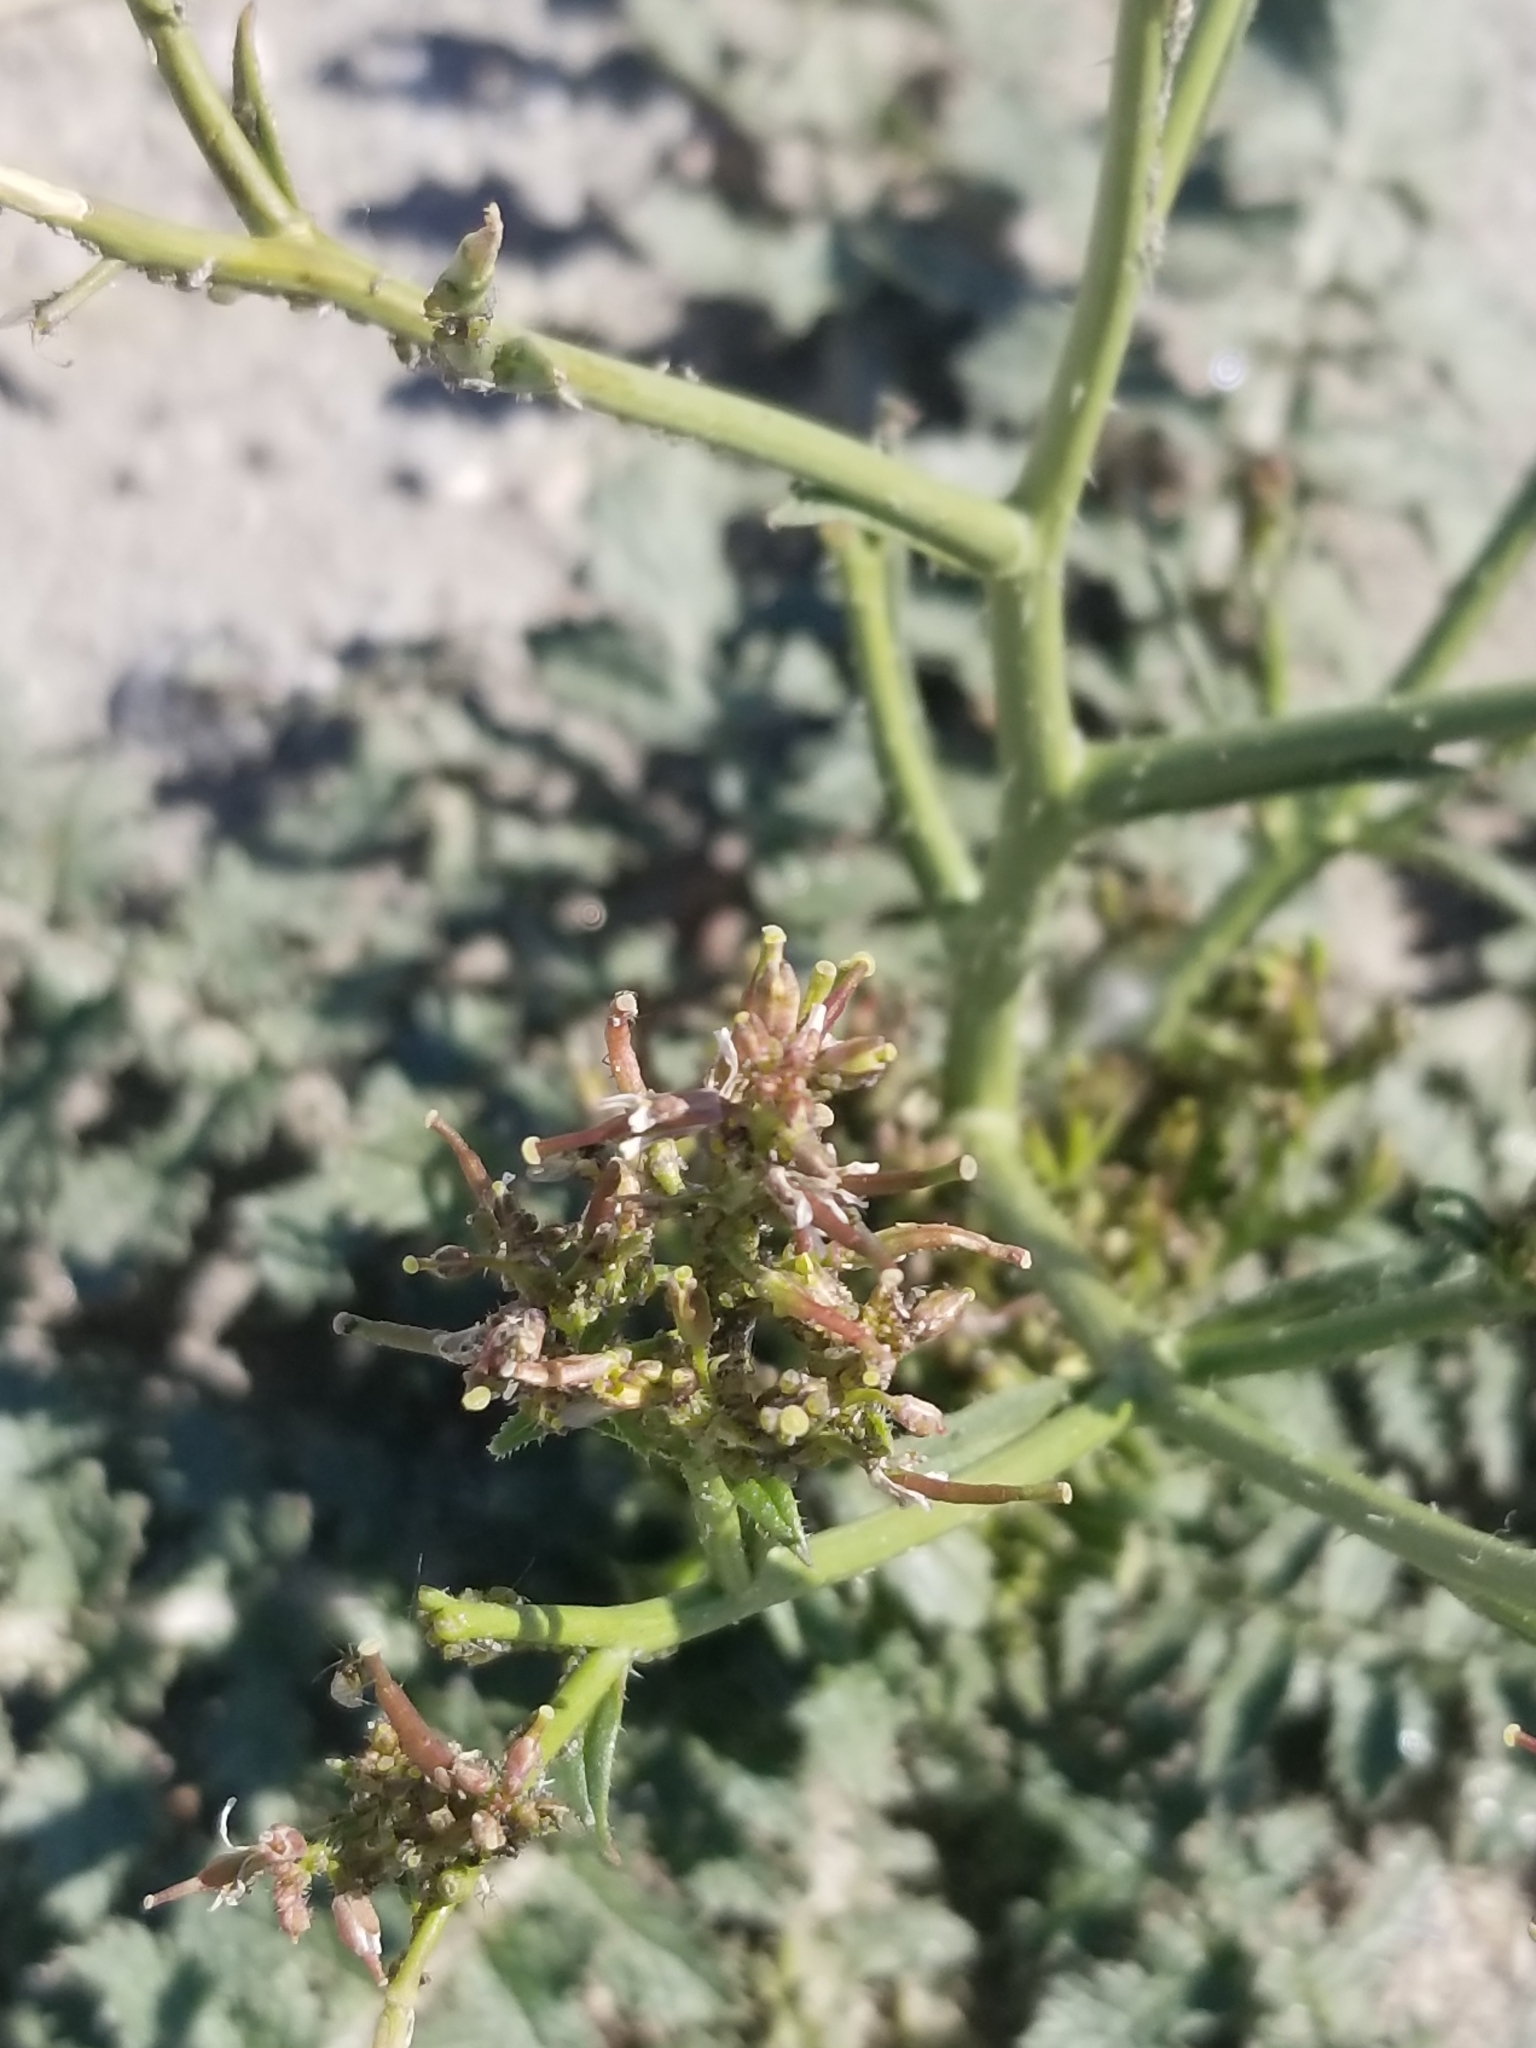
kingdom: Plantae
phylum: Tracheophyta
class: Magnoliopsida
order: Brassicales
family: Brassicaceae
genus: Brassica
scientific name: Brassica tournefortii
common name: Pale cabbage
